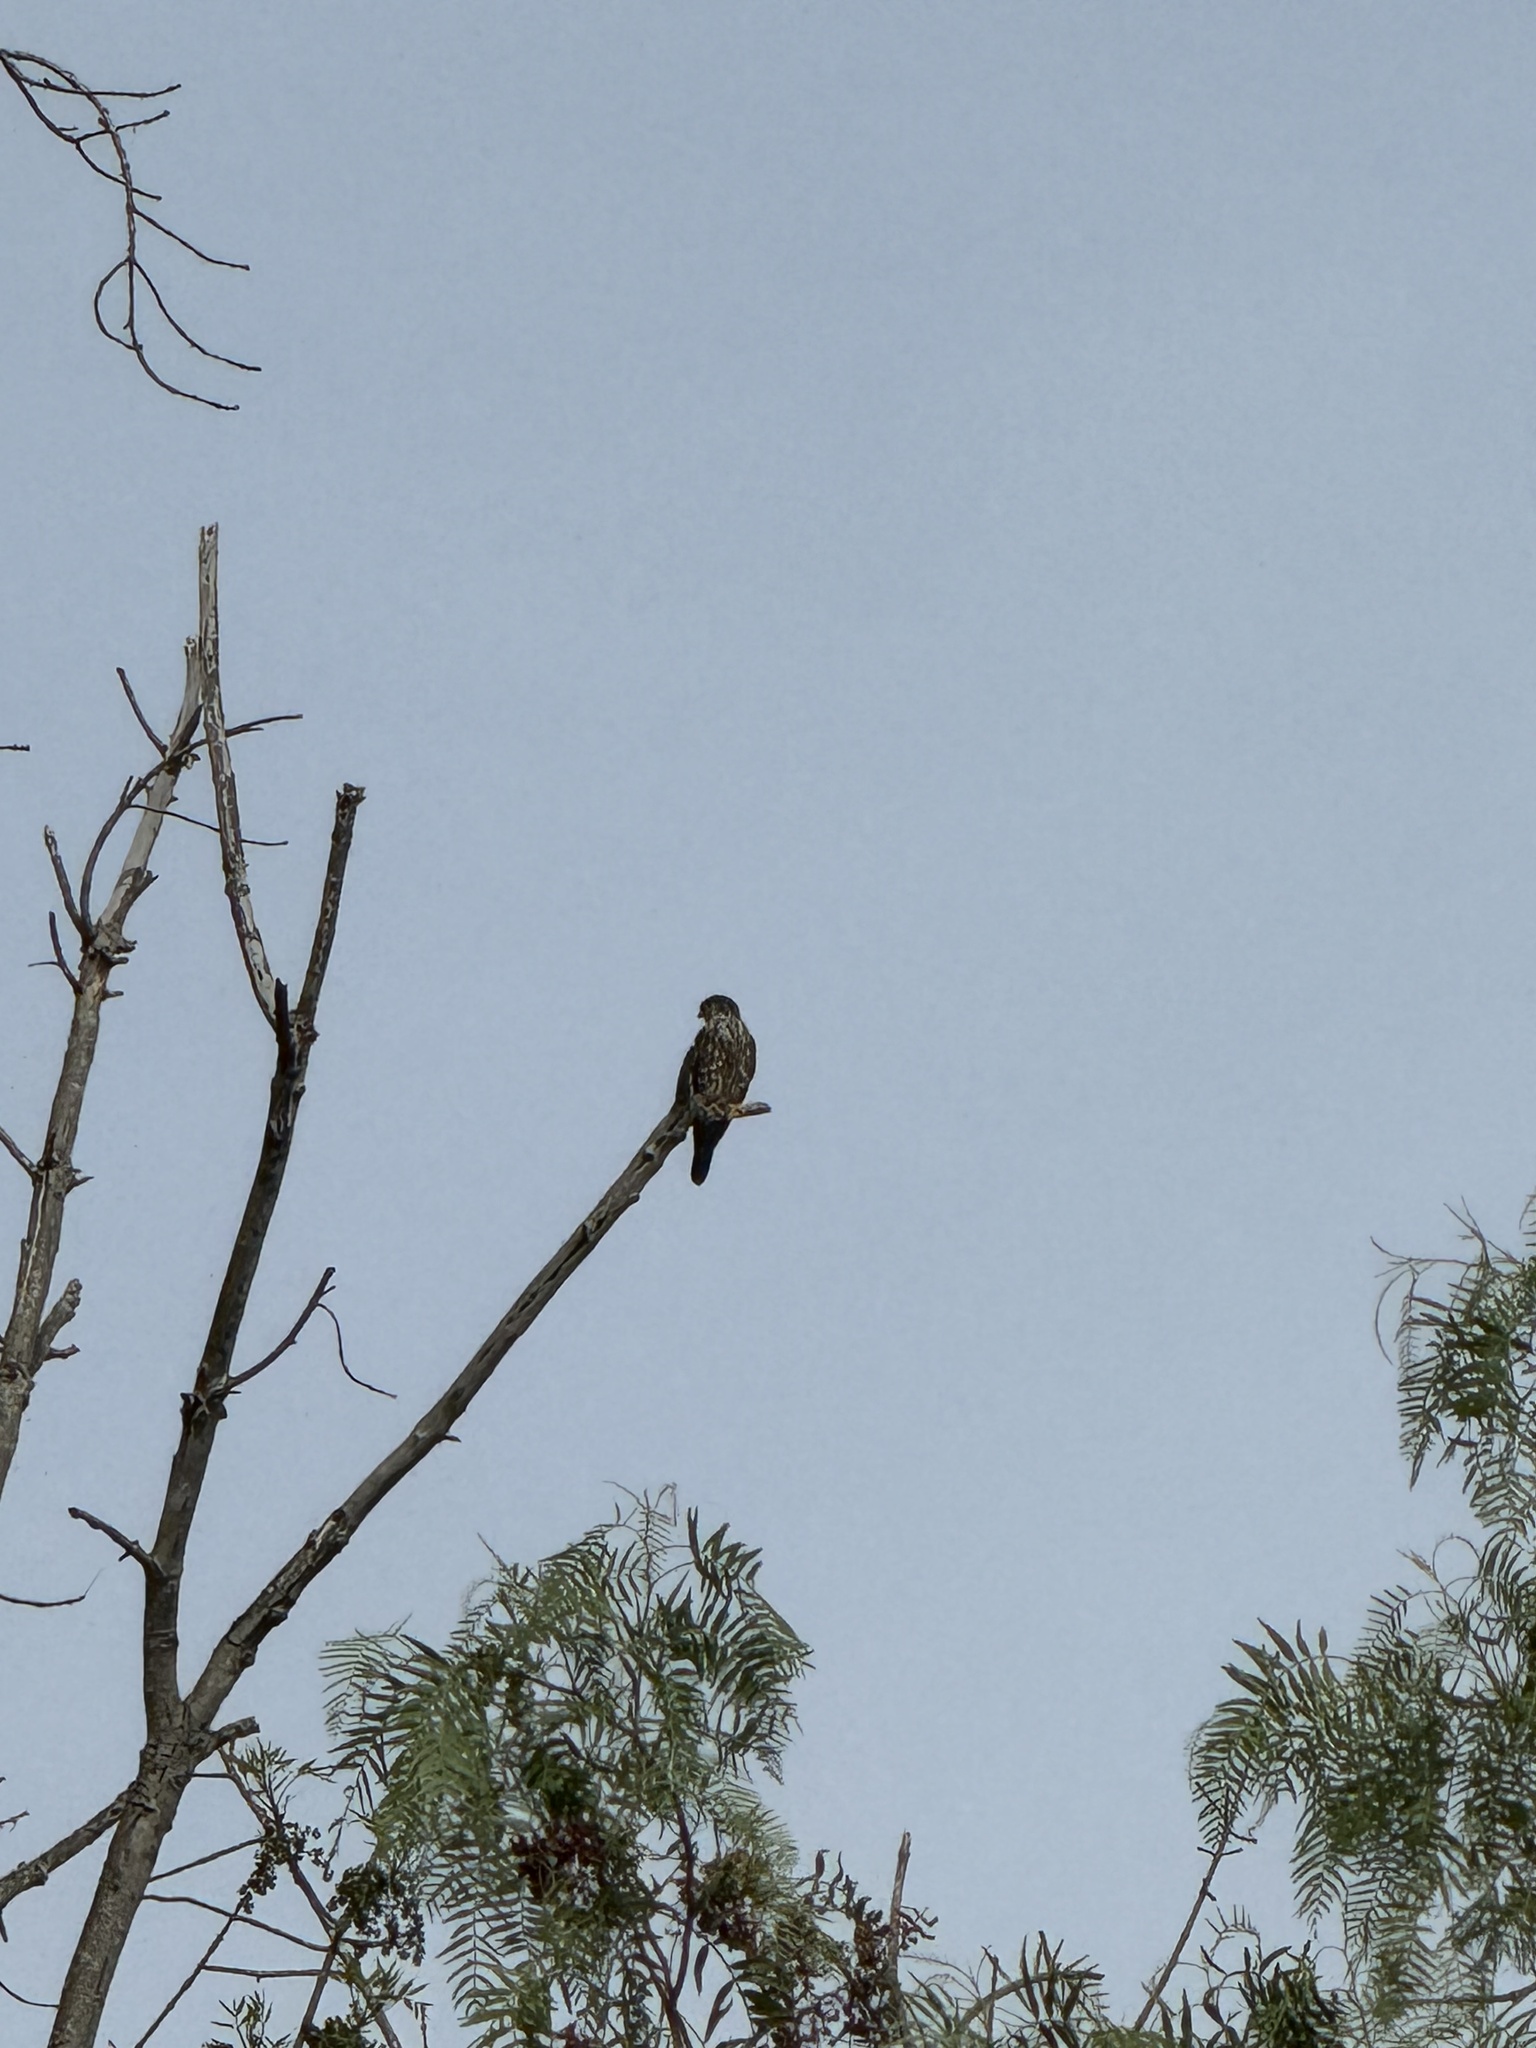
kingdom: Animalia
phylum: Chordata
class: Aves
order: Falconiformes
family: Falconidae
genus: Falco
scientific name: Falco columbarius
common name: Merlin
